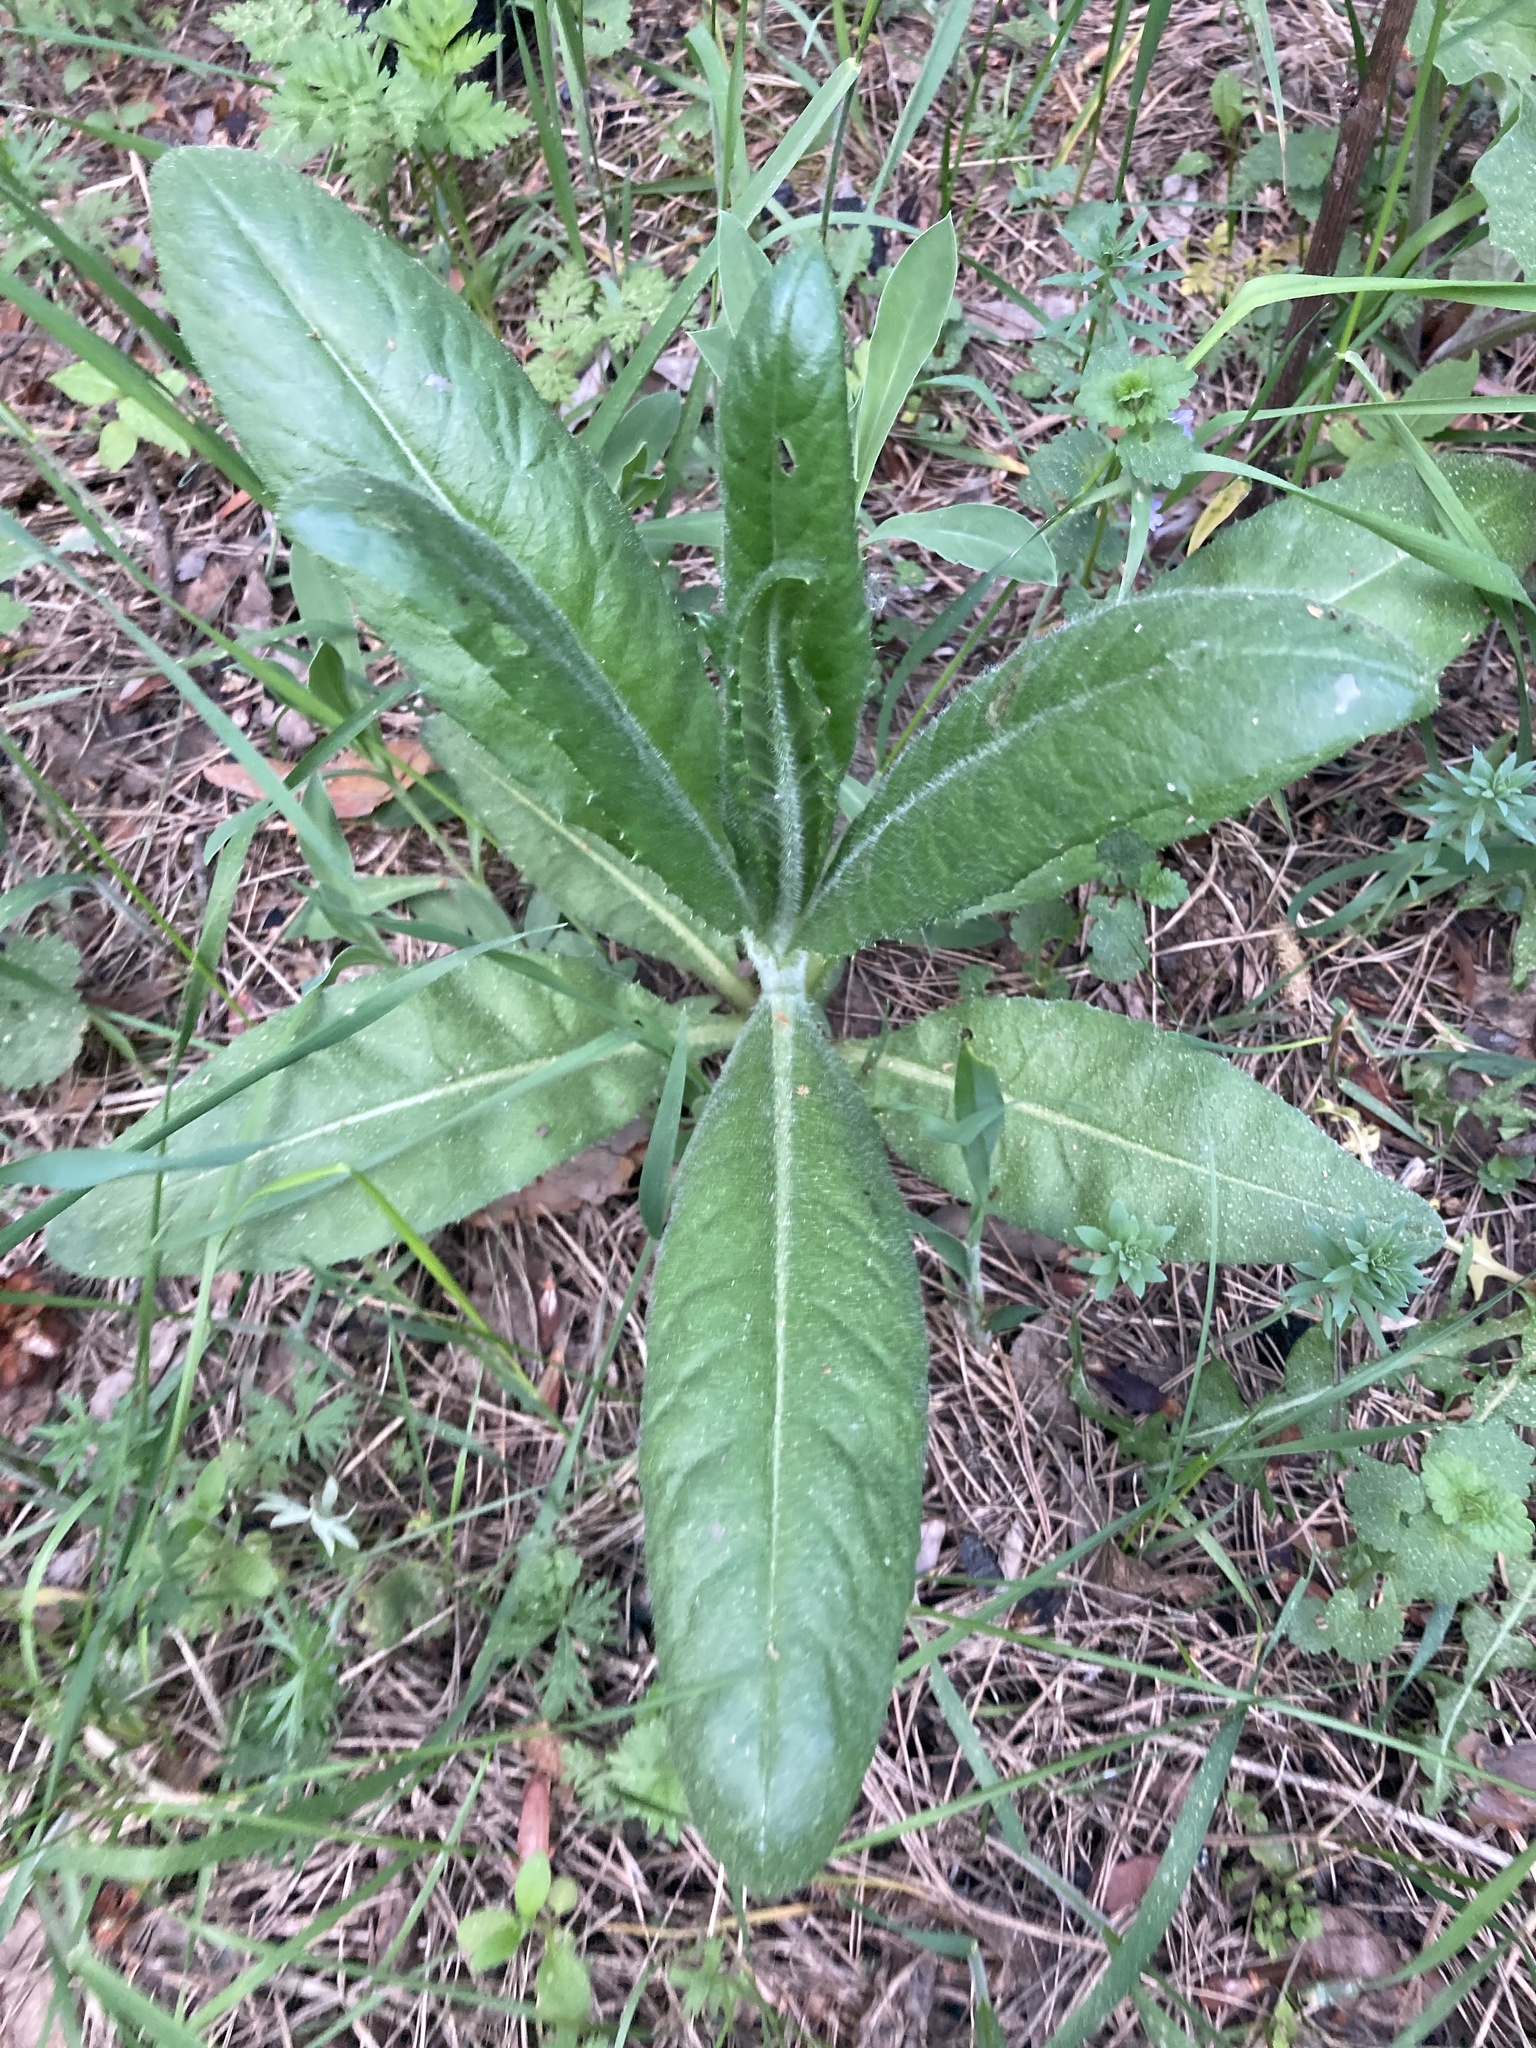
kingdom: Plantae
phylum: Tracheophyta
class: Magnoliopsida
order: Asterales
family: Asteraceae
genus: Cirsium
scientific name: Cirsium arvense
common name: Creeping thistle
